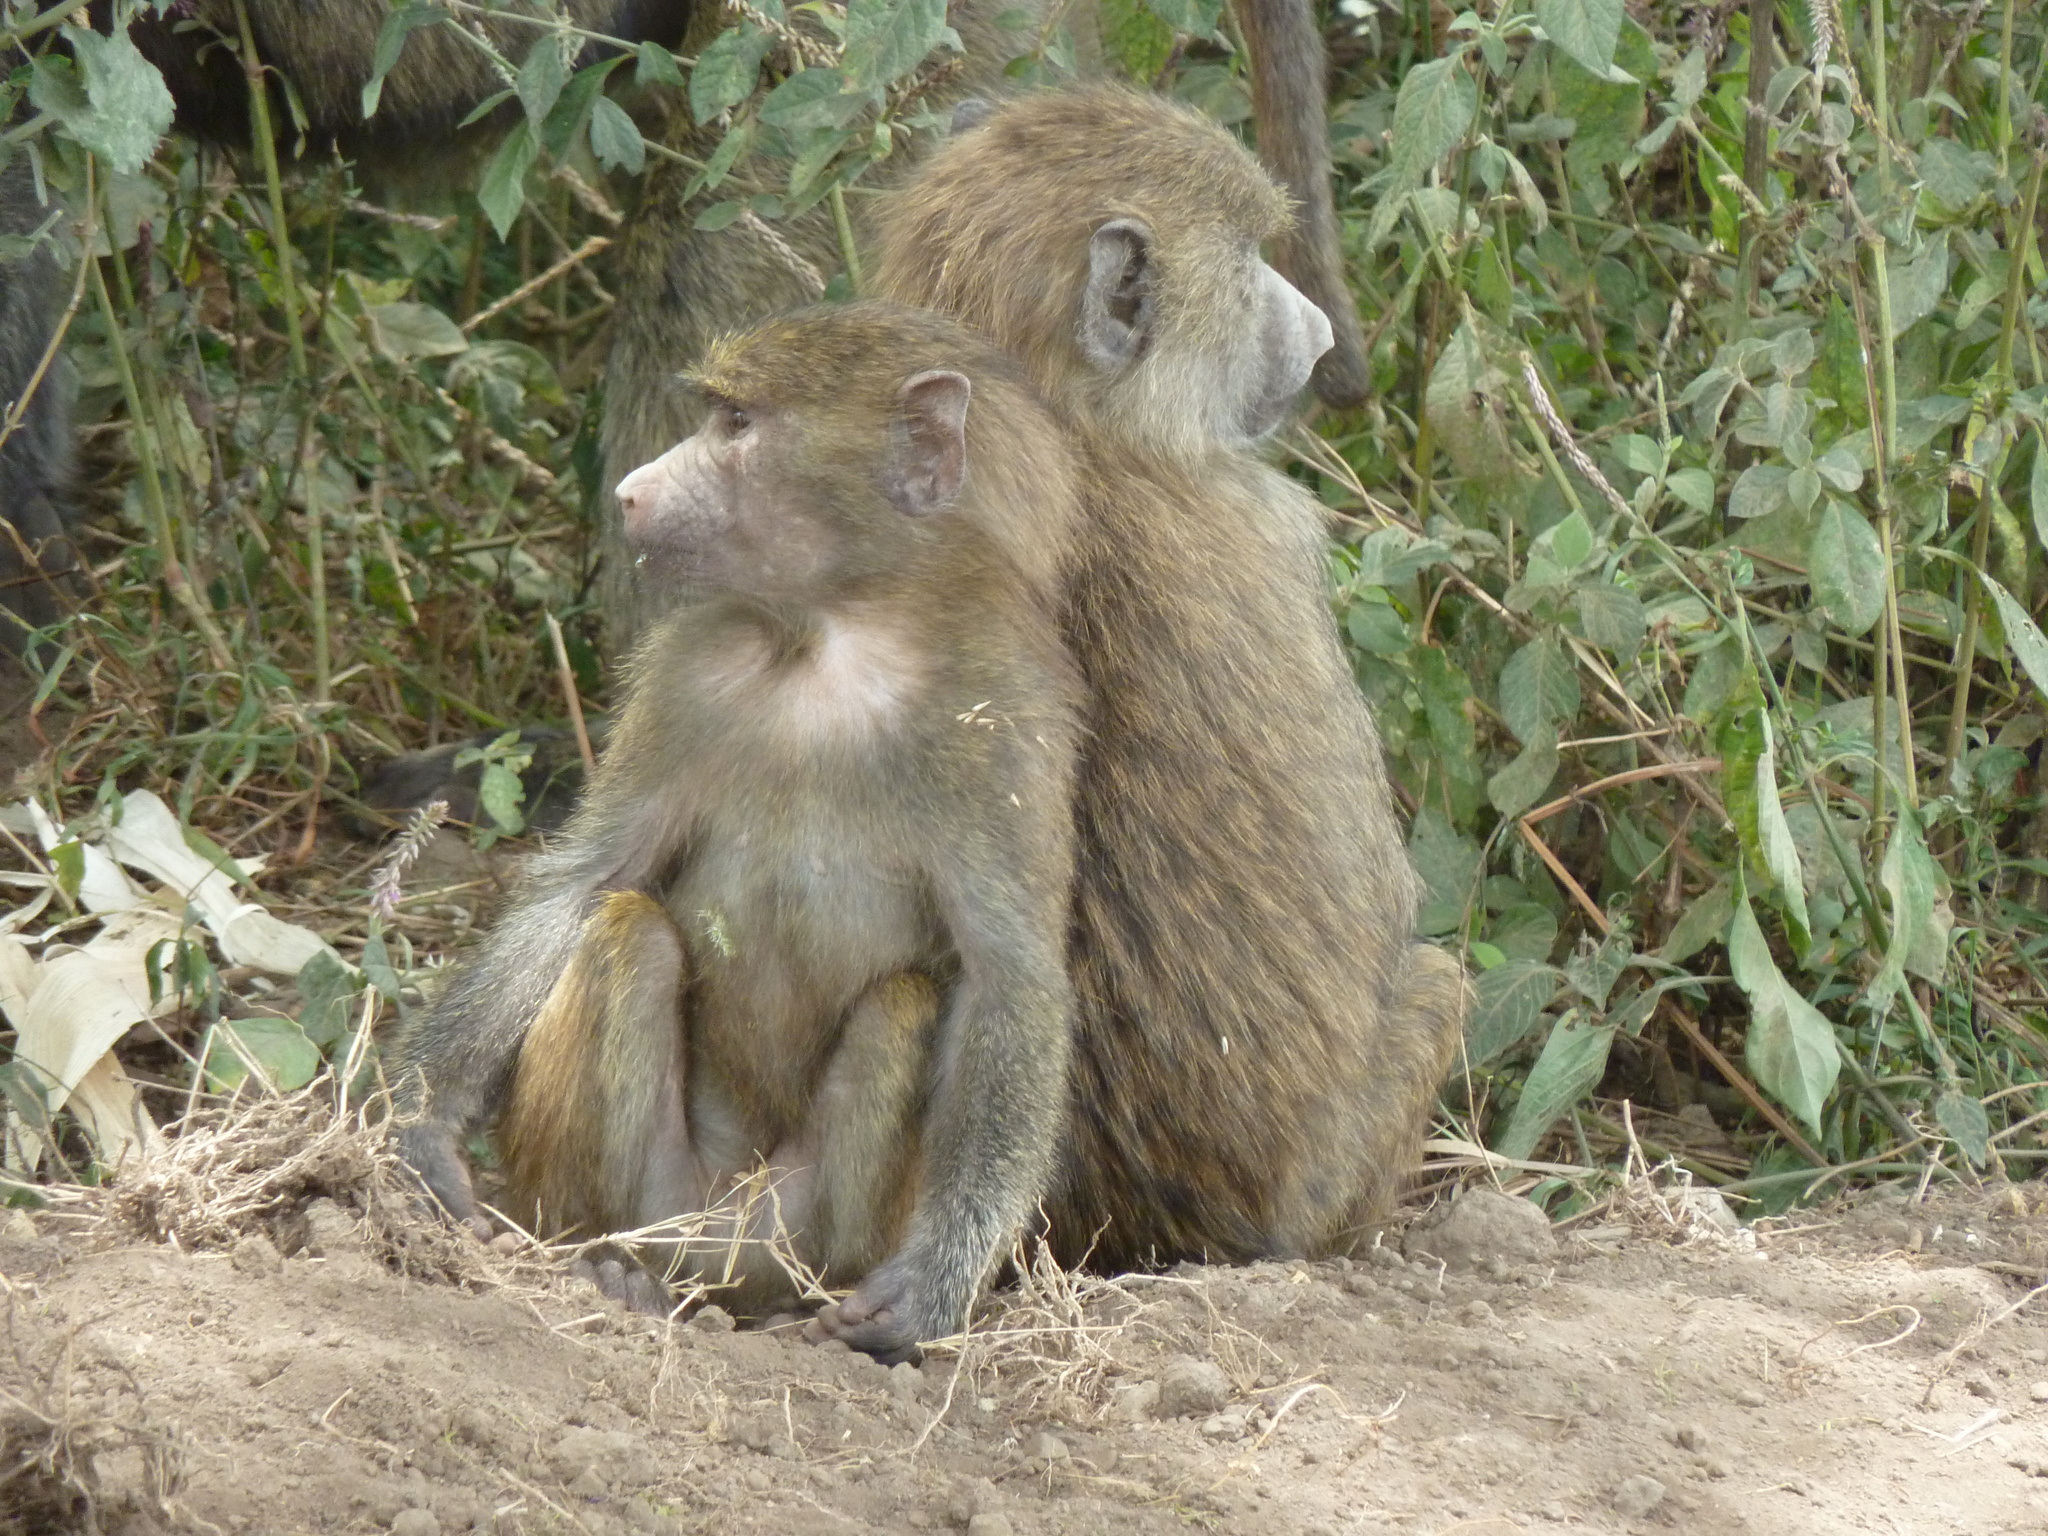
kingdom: Animalia
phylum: Chordata
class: Mammalia
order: Primates
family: Cercopithecidae
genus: Papio
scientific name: Papio anubis
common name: Olive baboon
